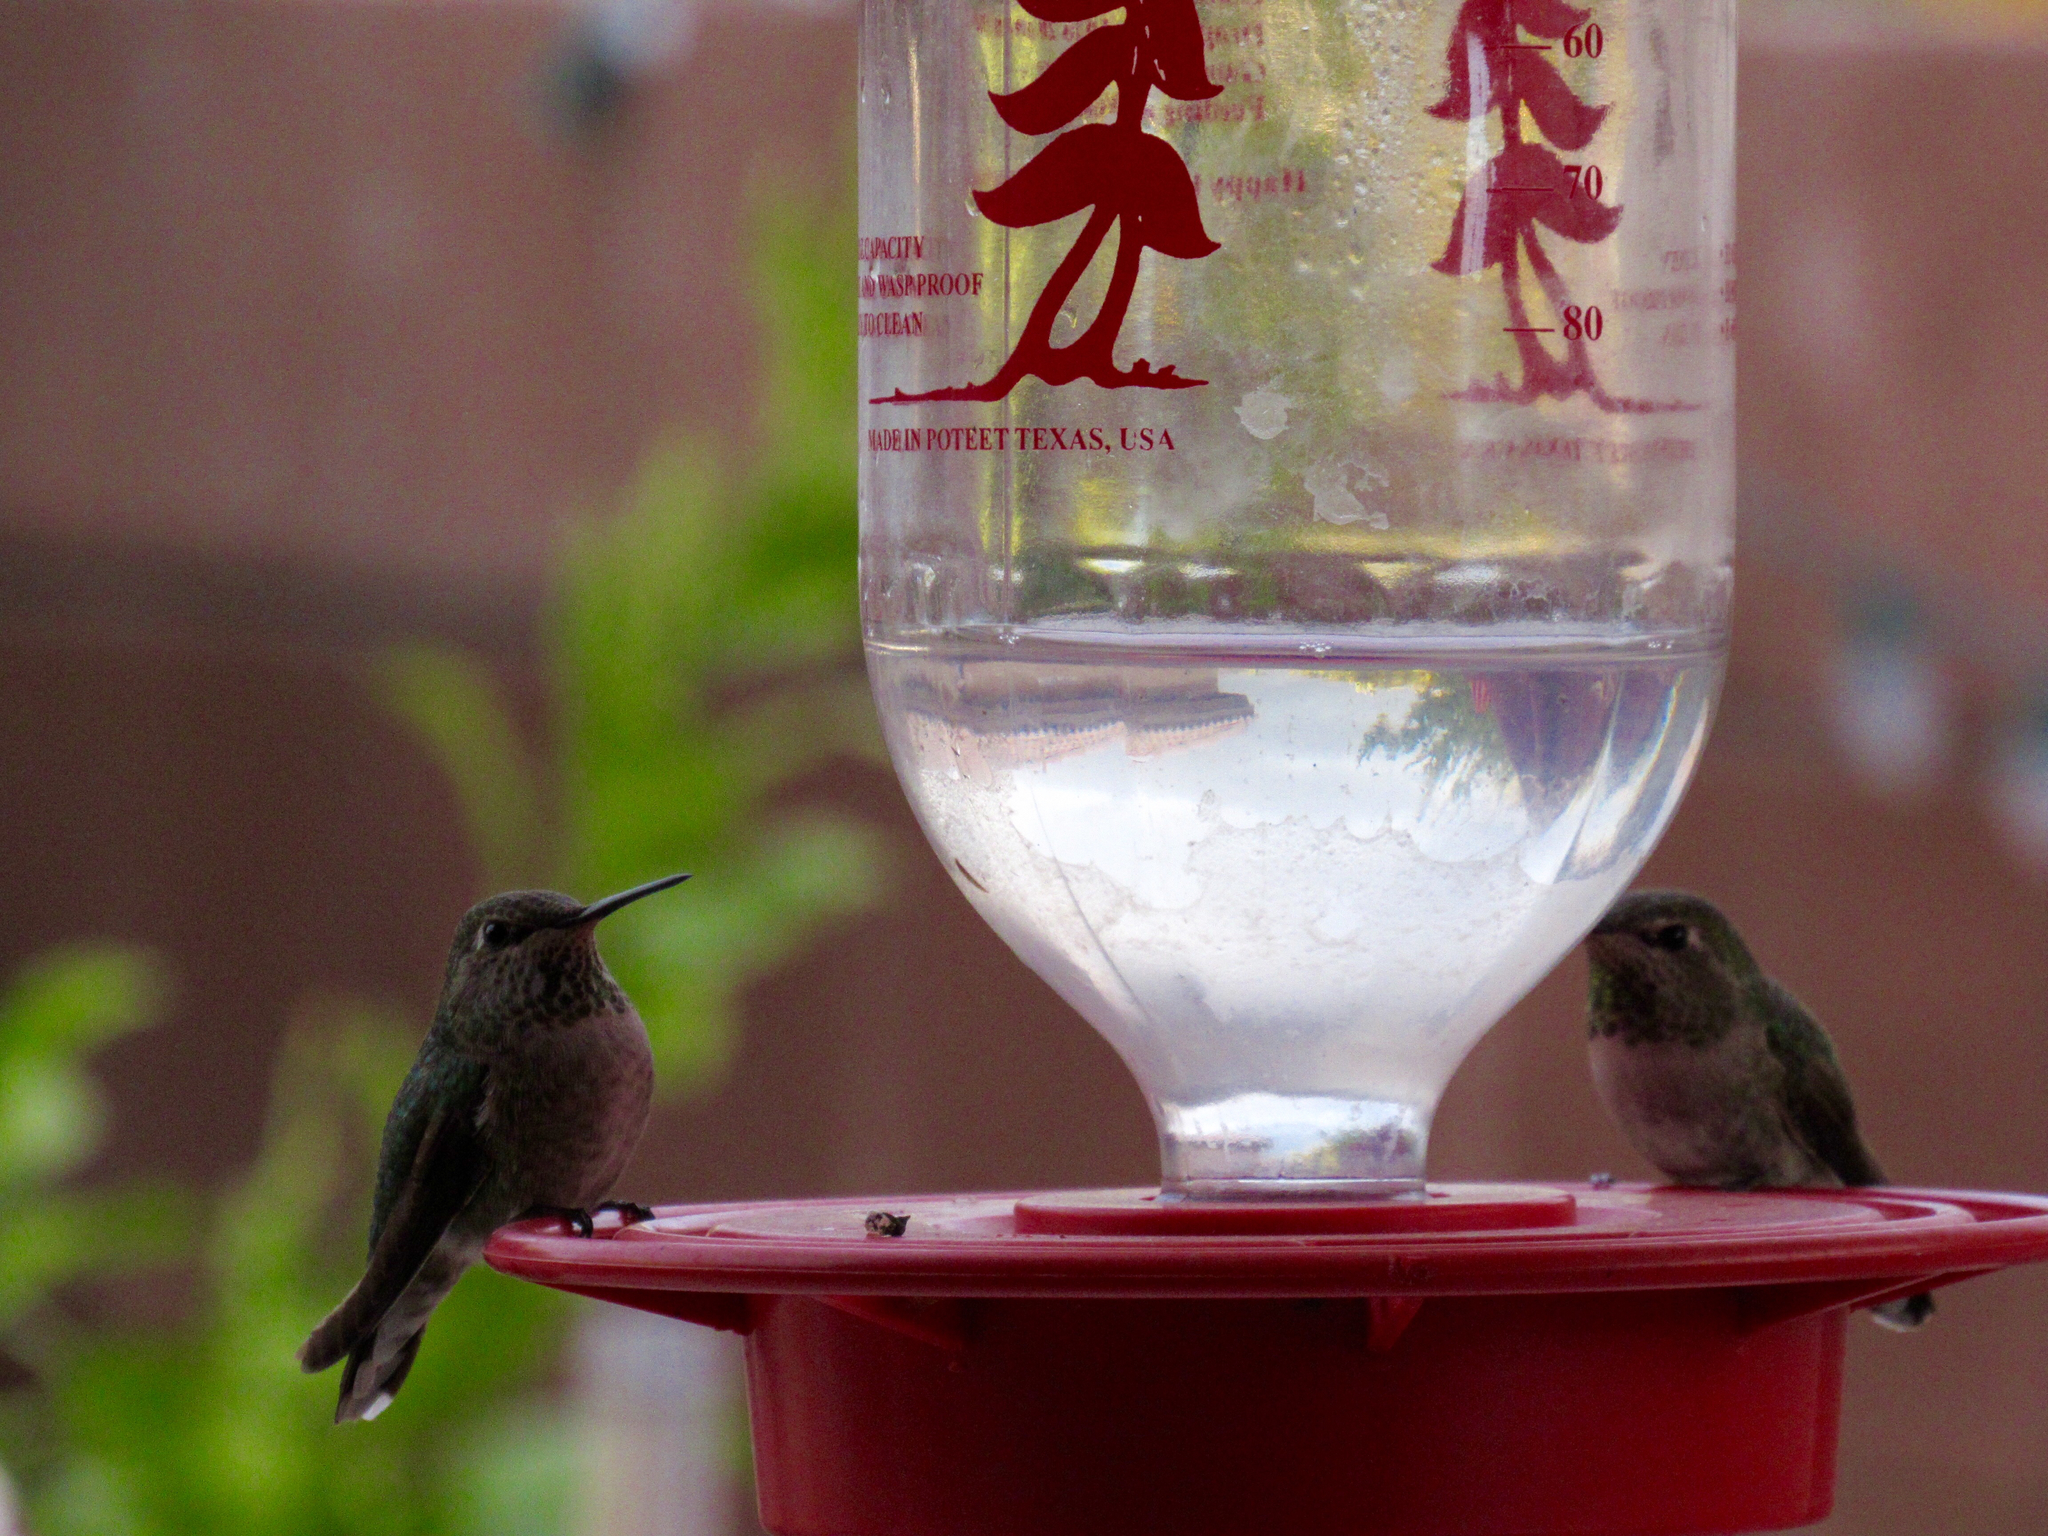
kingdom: Animalia
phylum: Chordata
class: Aves
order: Apodiformes
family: Trochilidae
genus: Calypte
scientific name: Calypte anna
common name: Anna's hummingbird
